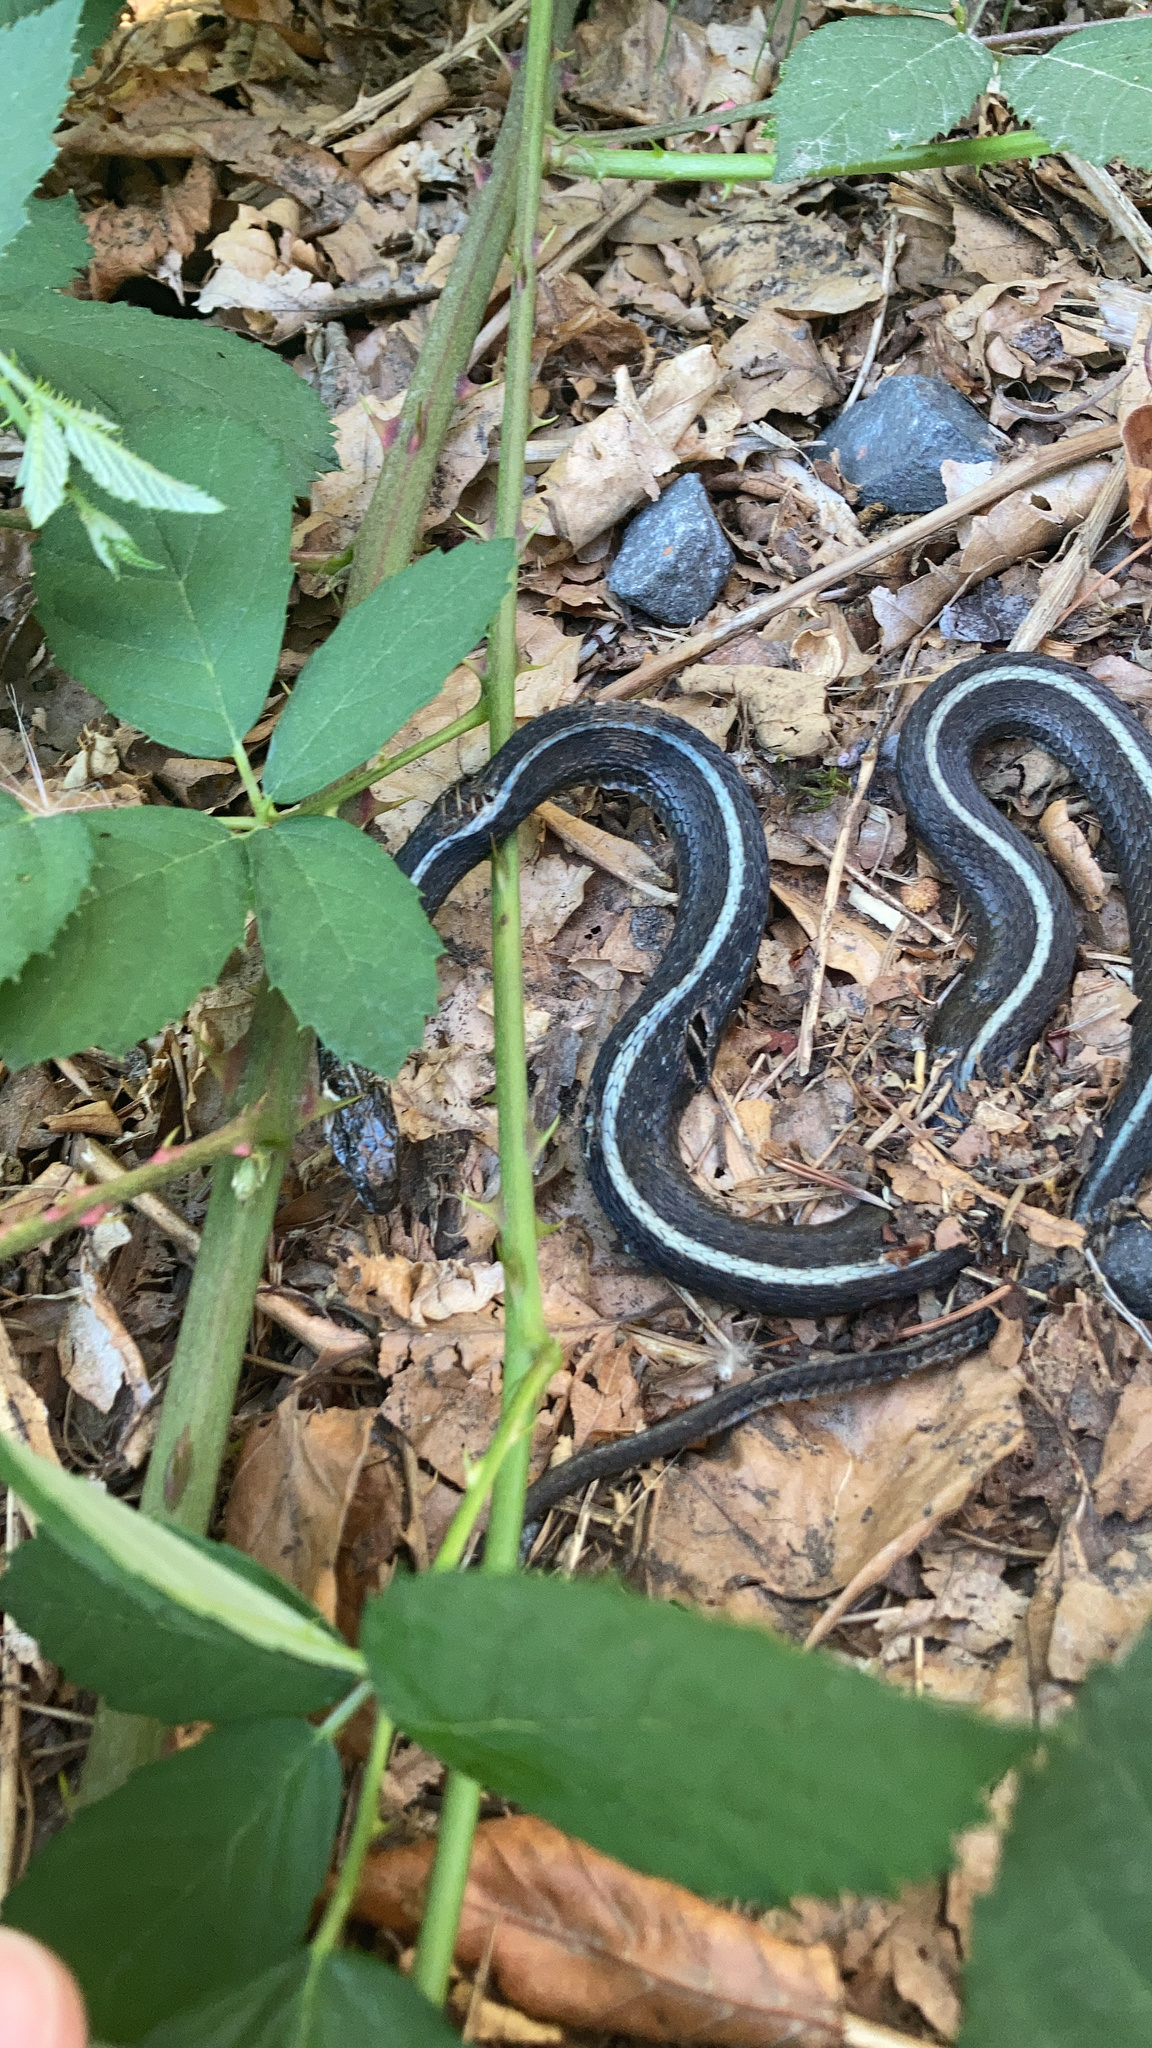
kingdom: Animalia
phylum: Chordata
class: Squamata
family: Colubridae
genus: Thamnophis
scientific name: Thamnophis ordinoides
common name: Northwestern garter snake
